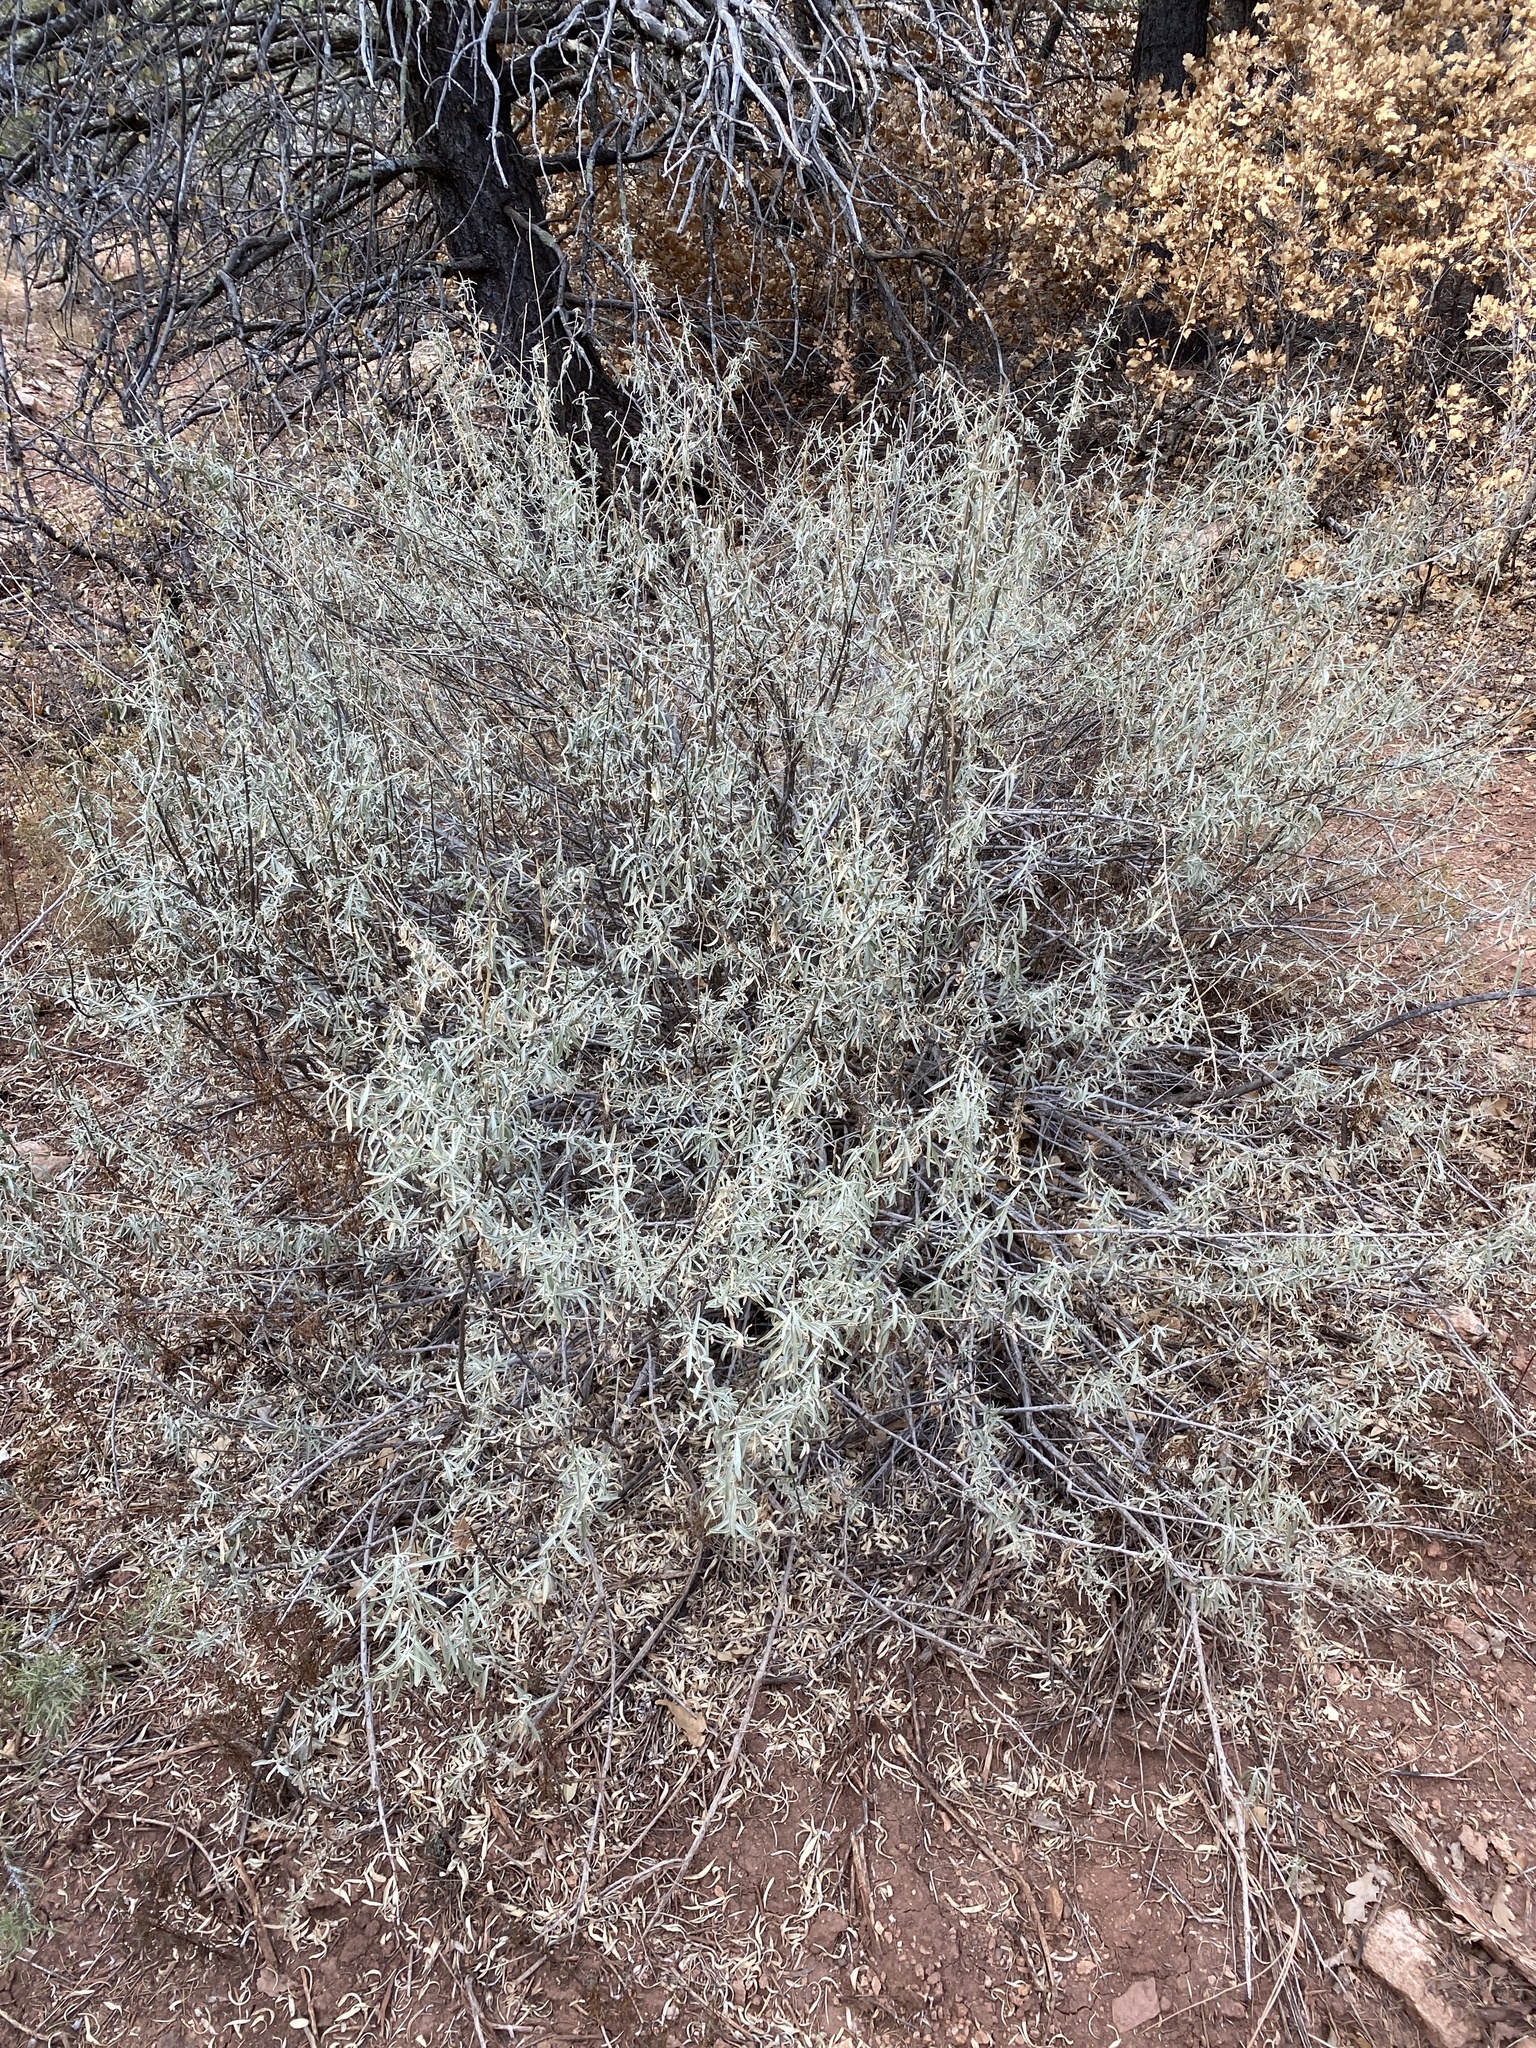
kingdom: Plantae
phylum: Tracheophyta
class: Magnoliopsida
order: Caryophyllales
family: Amaranthaceae
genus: Atriplex
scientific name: Atriplex canescens
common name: Four-wing saltbush
